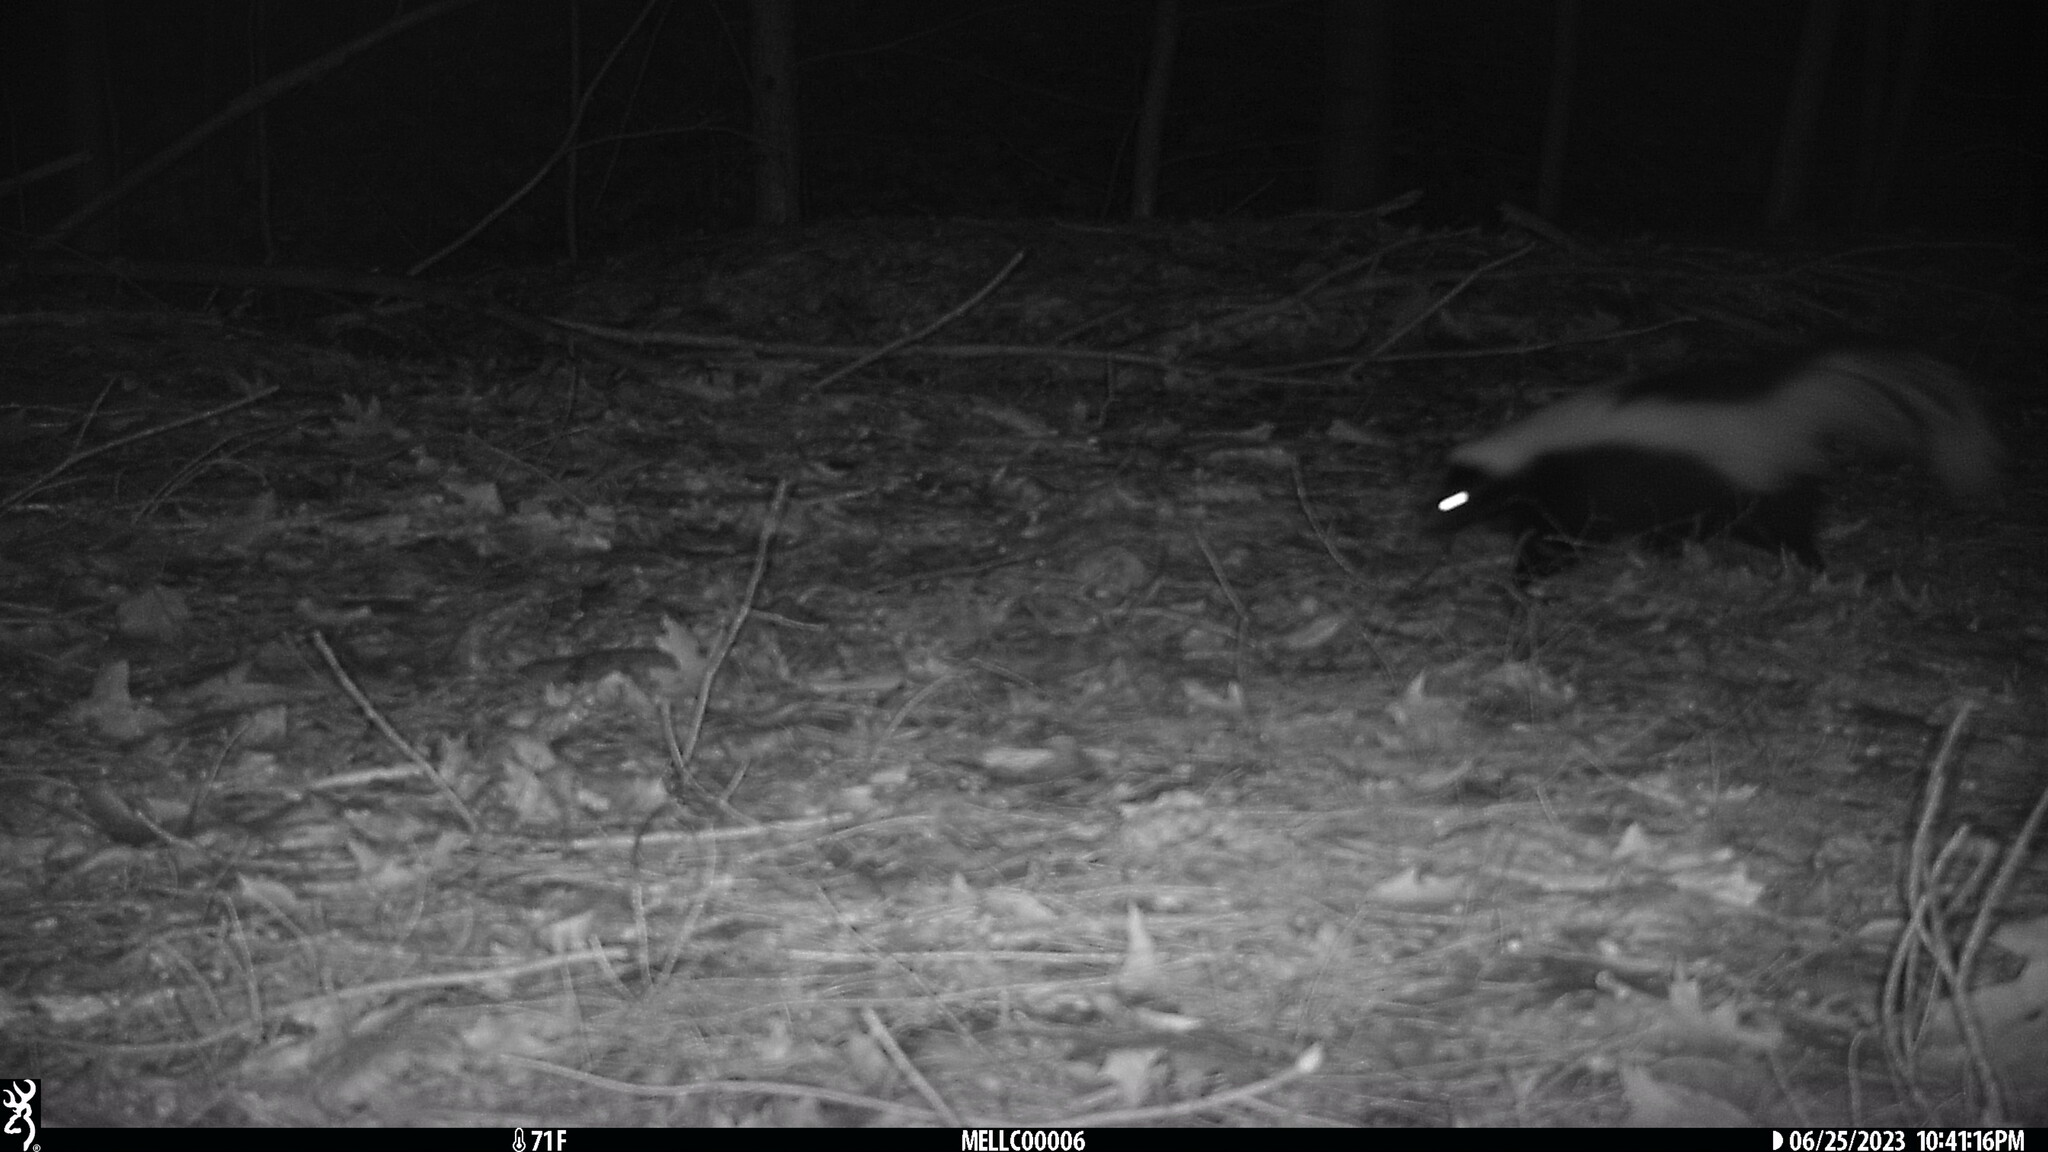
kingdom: Animalia
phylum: Chordata
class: Mammalia
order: Carnivora
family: Mephitidae
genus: Mephitis
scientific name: Mephitis mephitis
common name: Striped skunk
